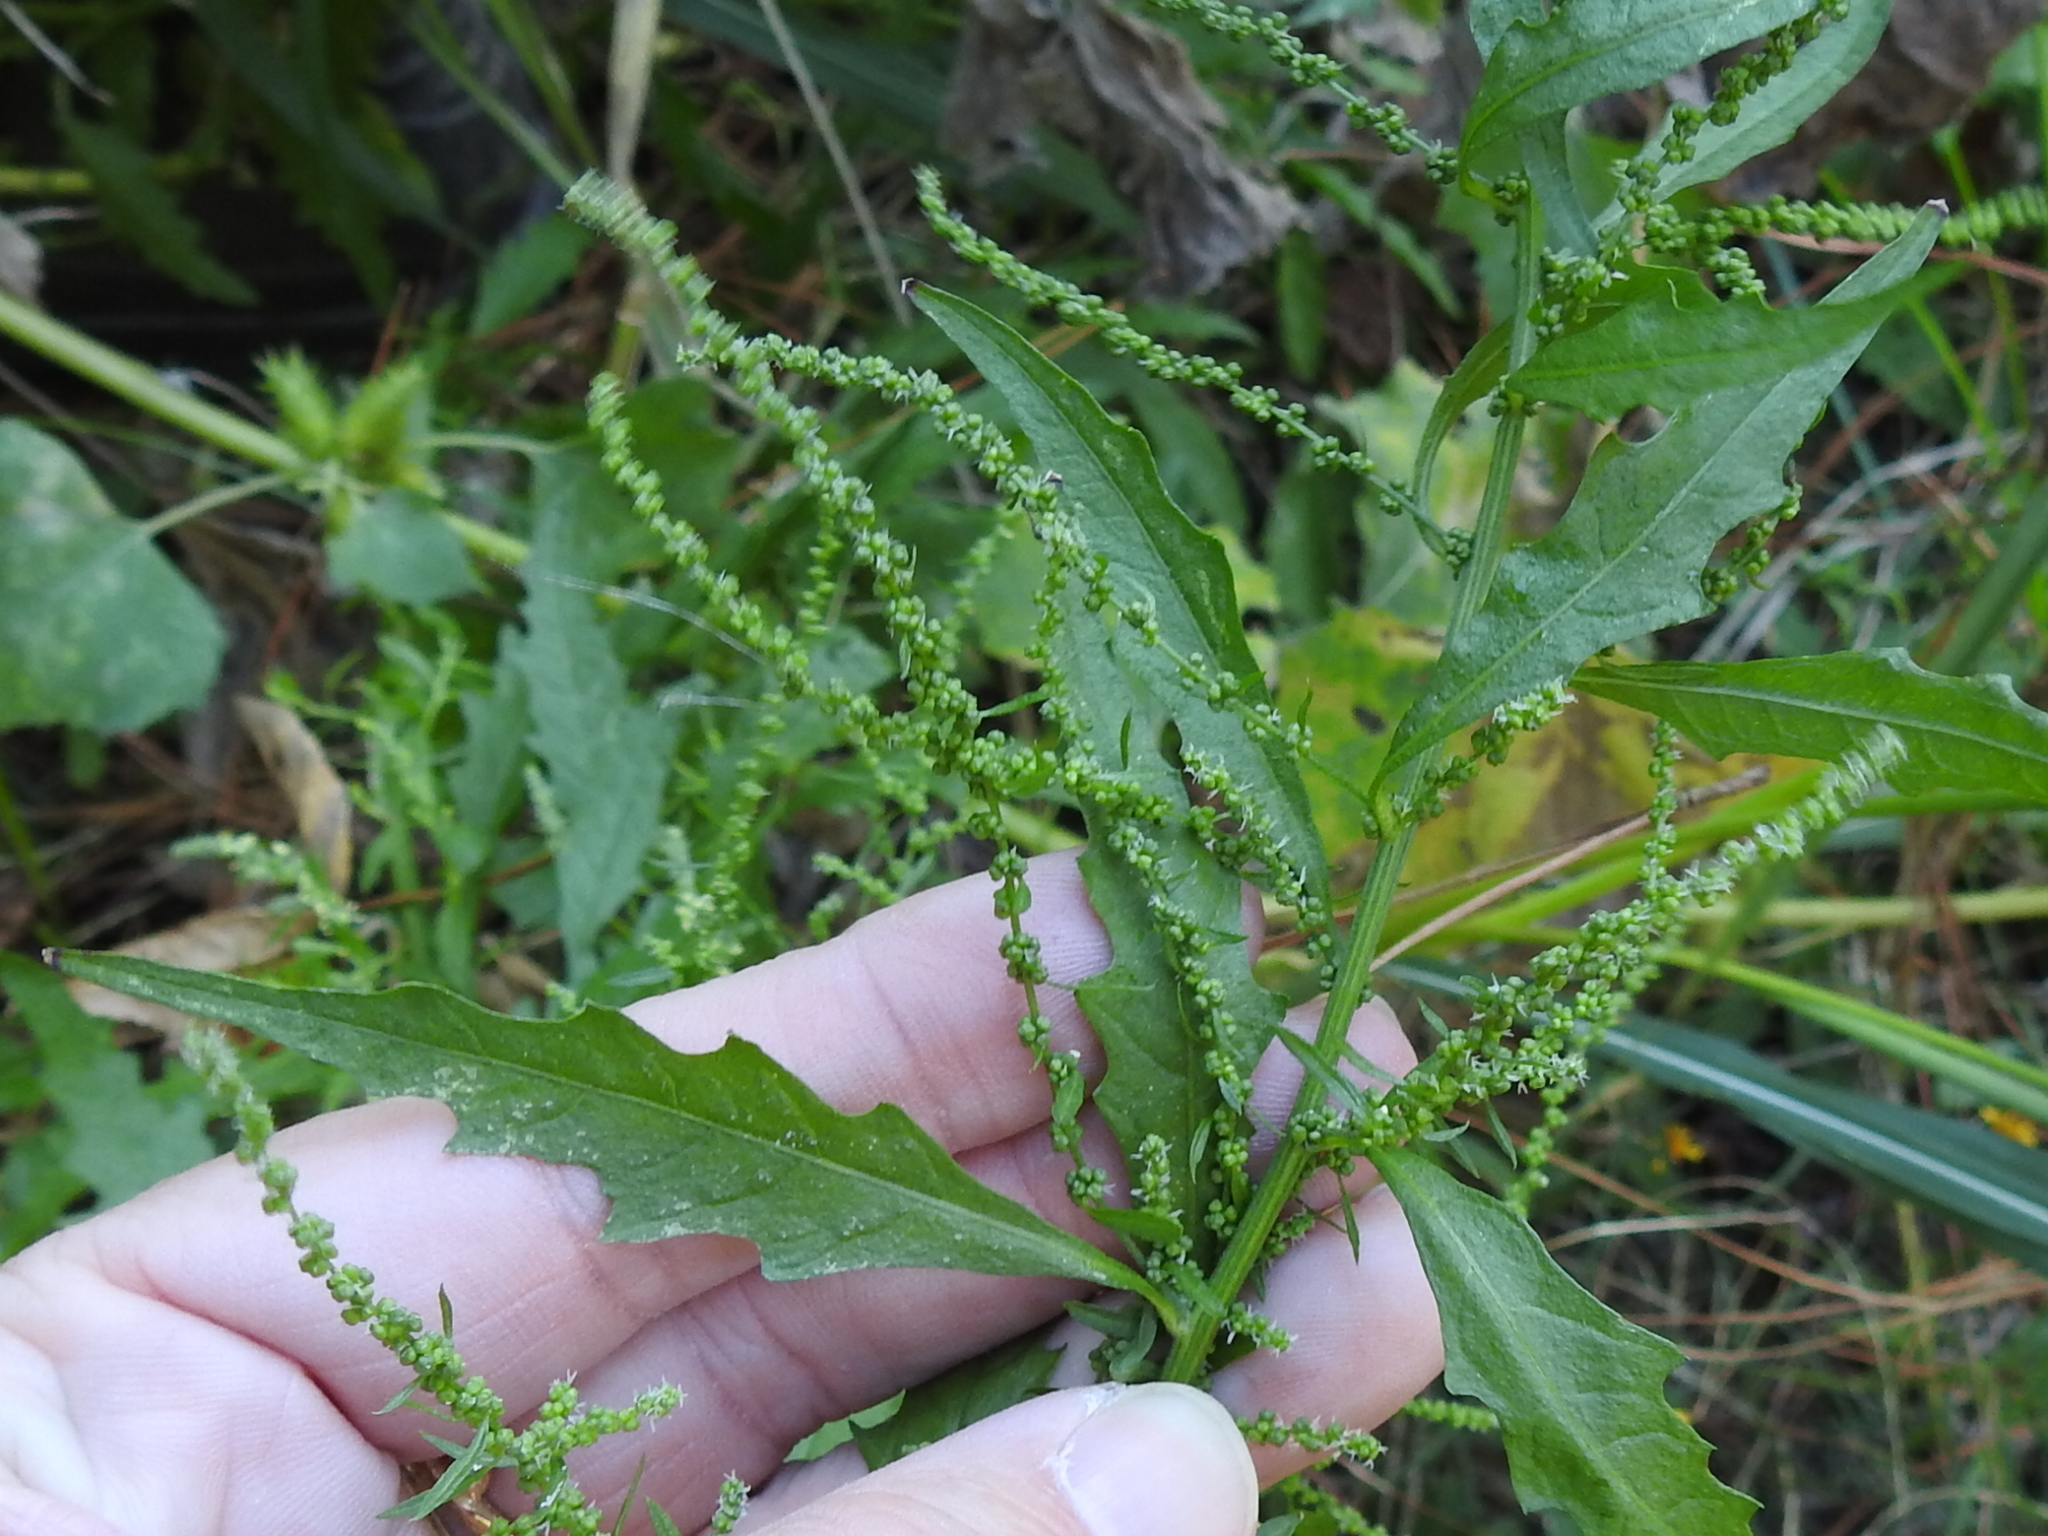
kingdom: Plantae
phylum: Tracheophyta
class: Magnoliopsida
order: Caryophyllales
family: Amaranthaceae
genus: Dysphania
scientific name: Dysphania ambrosioides
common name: Wormseed
